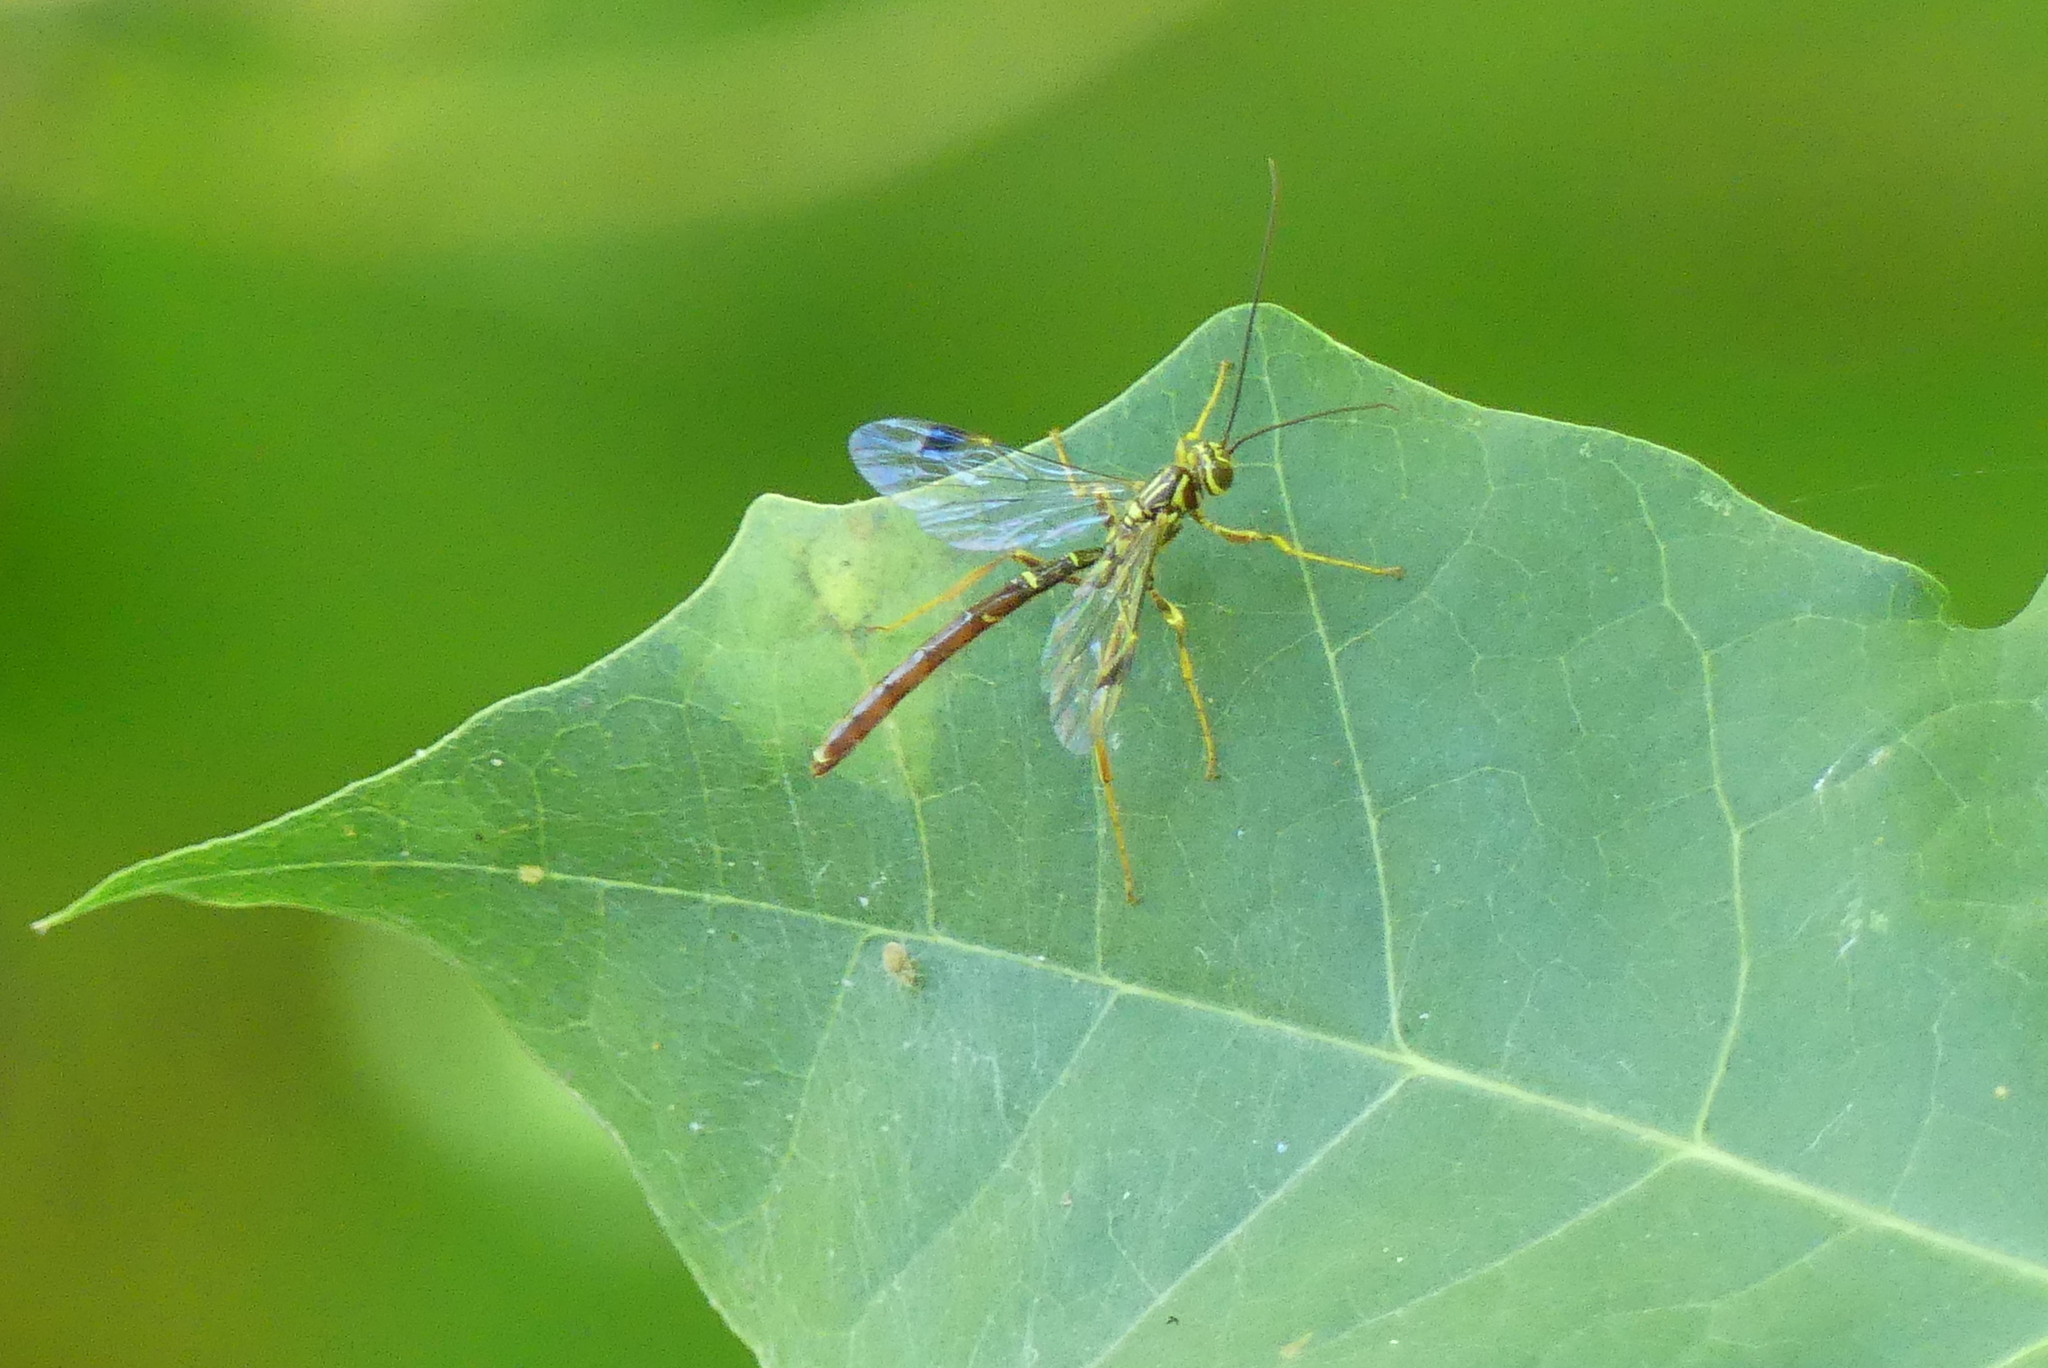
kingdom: Animalia
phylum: Arthropoda
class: Insecta
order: Hymenoptera
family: Ichneumonidae
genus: Megarhyssa
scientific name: Megarhyssa macrura
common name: Long-tailed giant ichneumonid wasp
